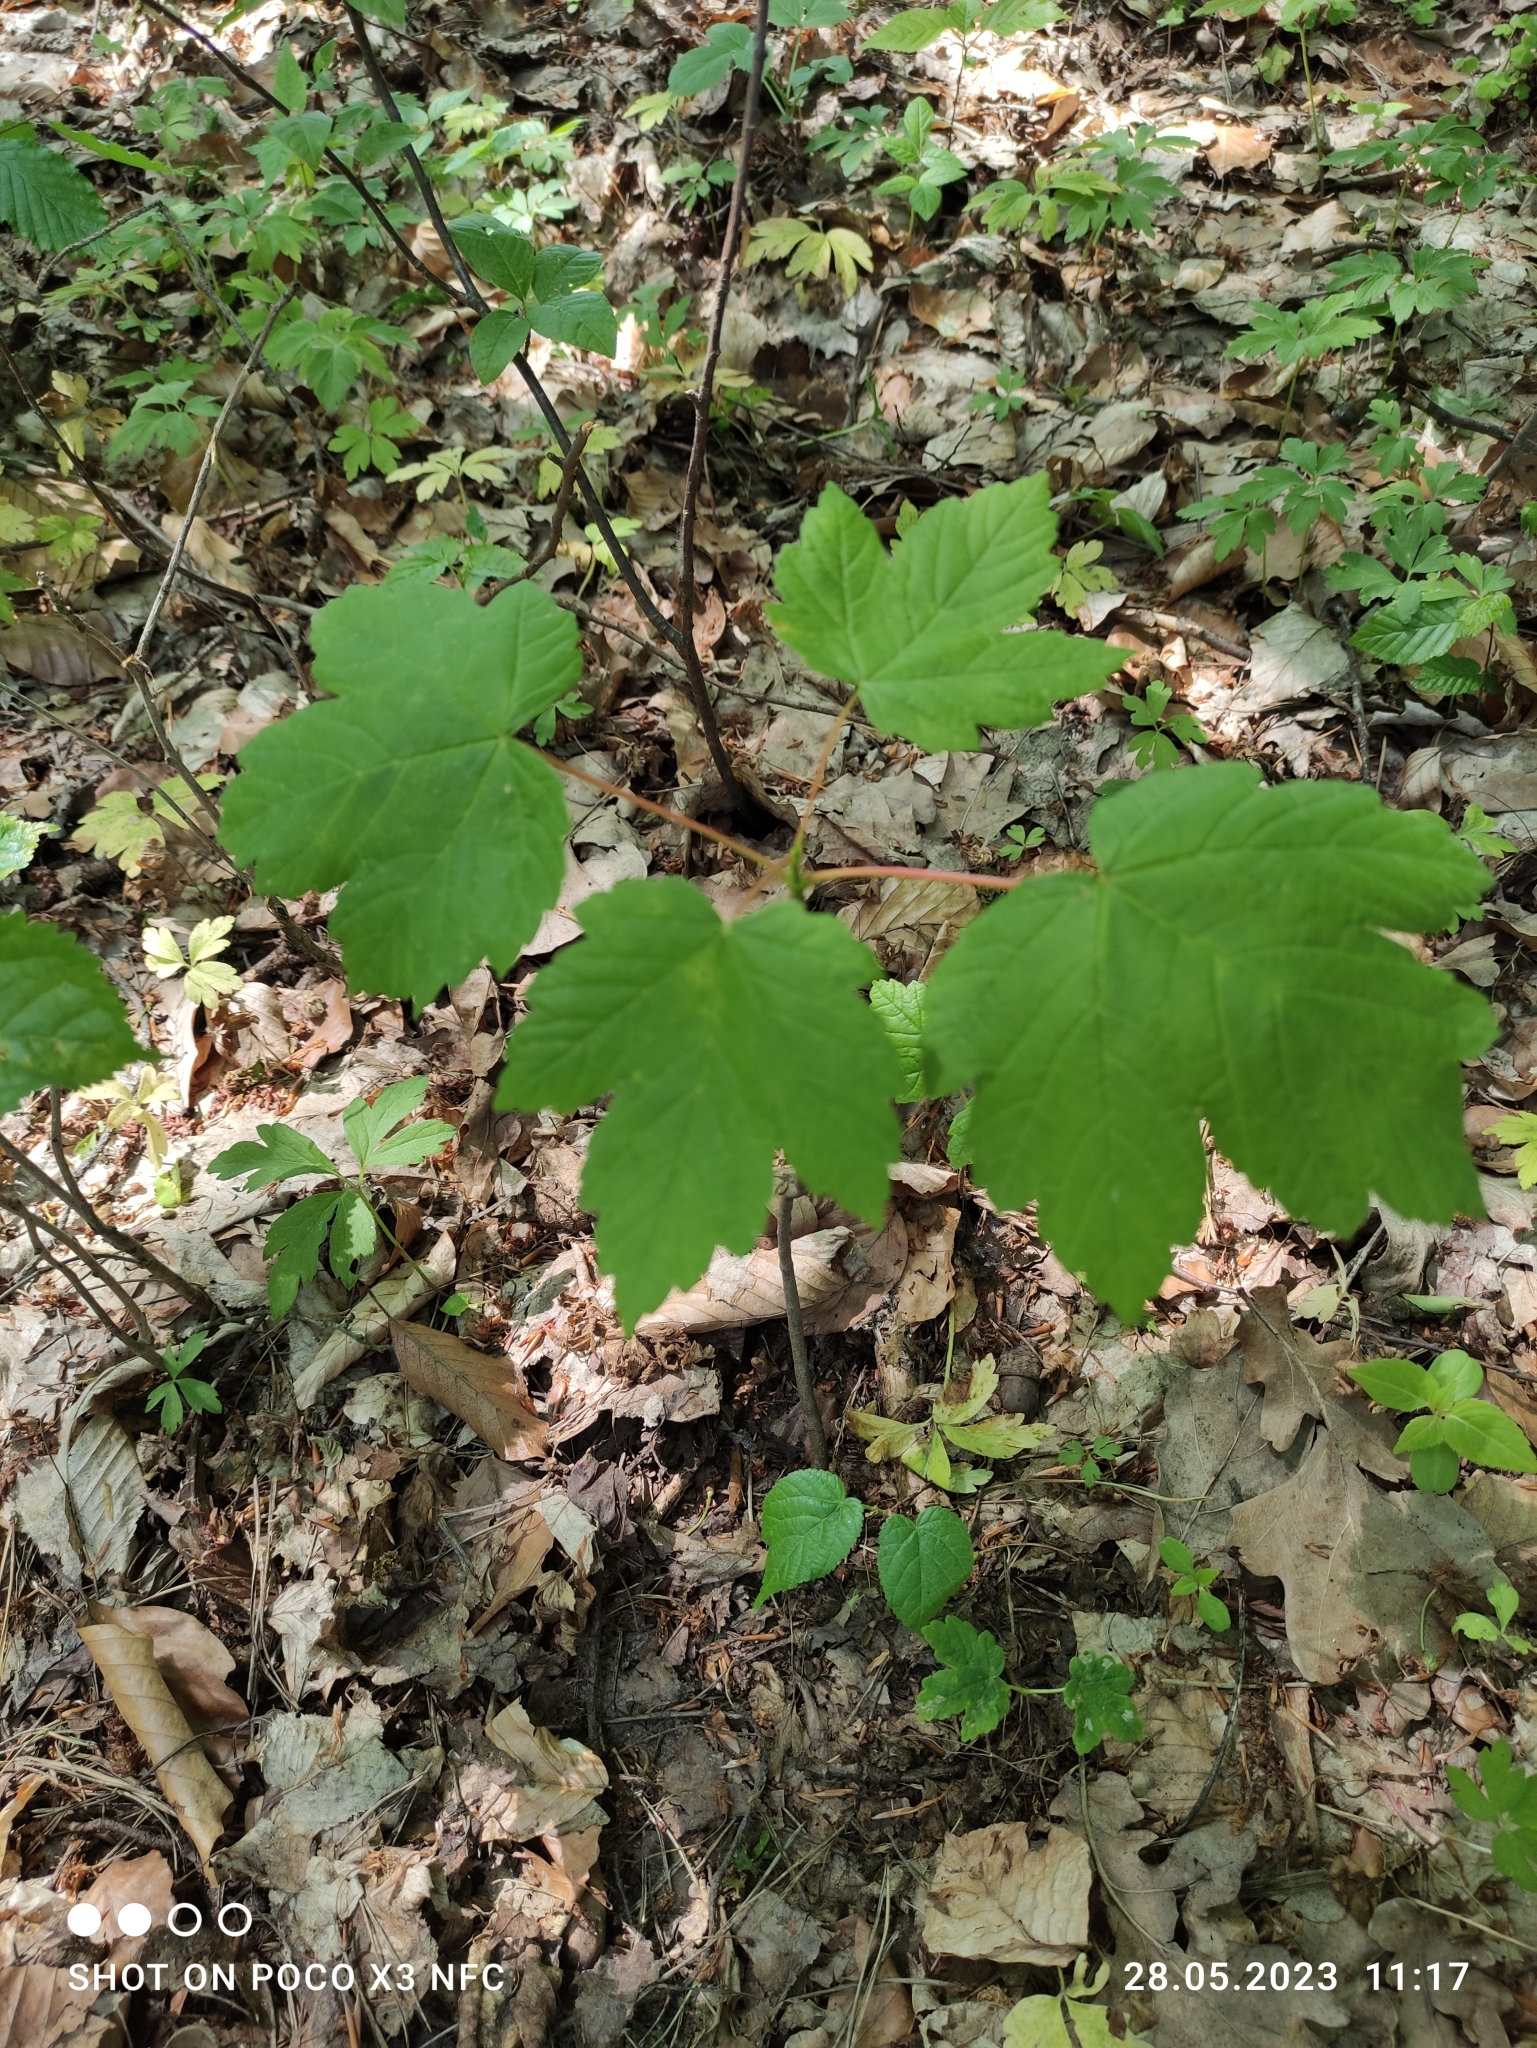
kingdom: Plantae
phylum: Tracheophyta
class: Magnoliopsida
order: Sapindales
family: Sapindaceae
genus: Acer
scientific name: Acer pseudoplatanus
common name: Sycamore
